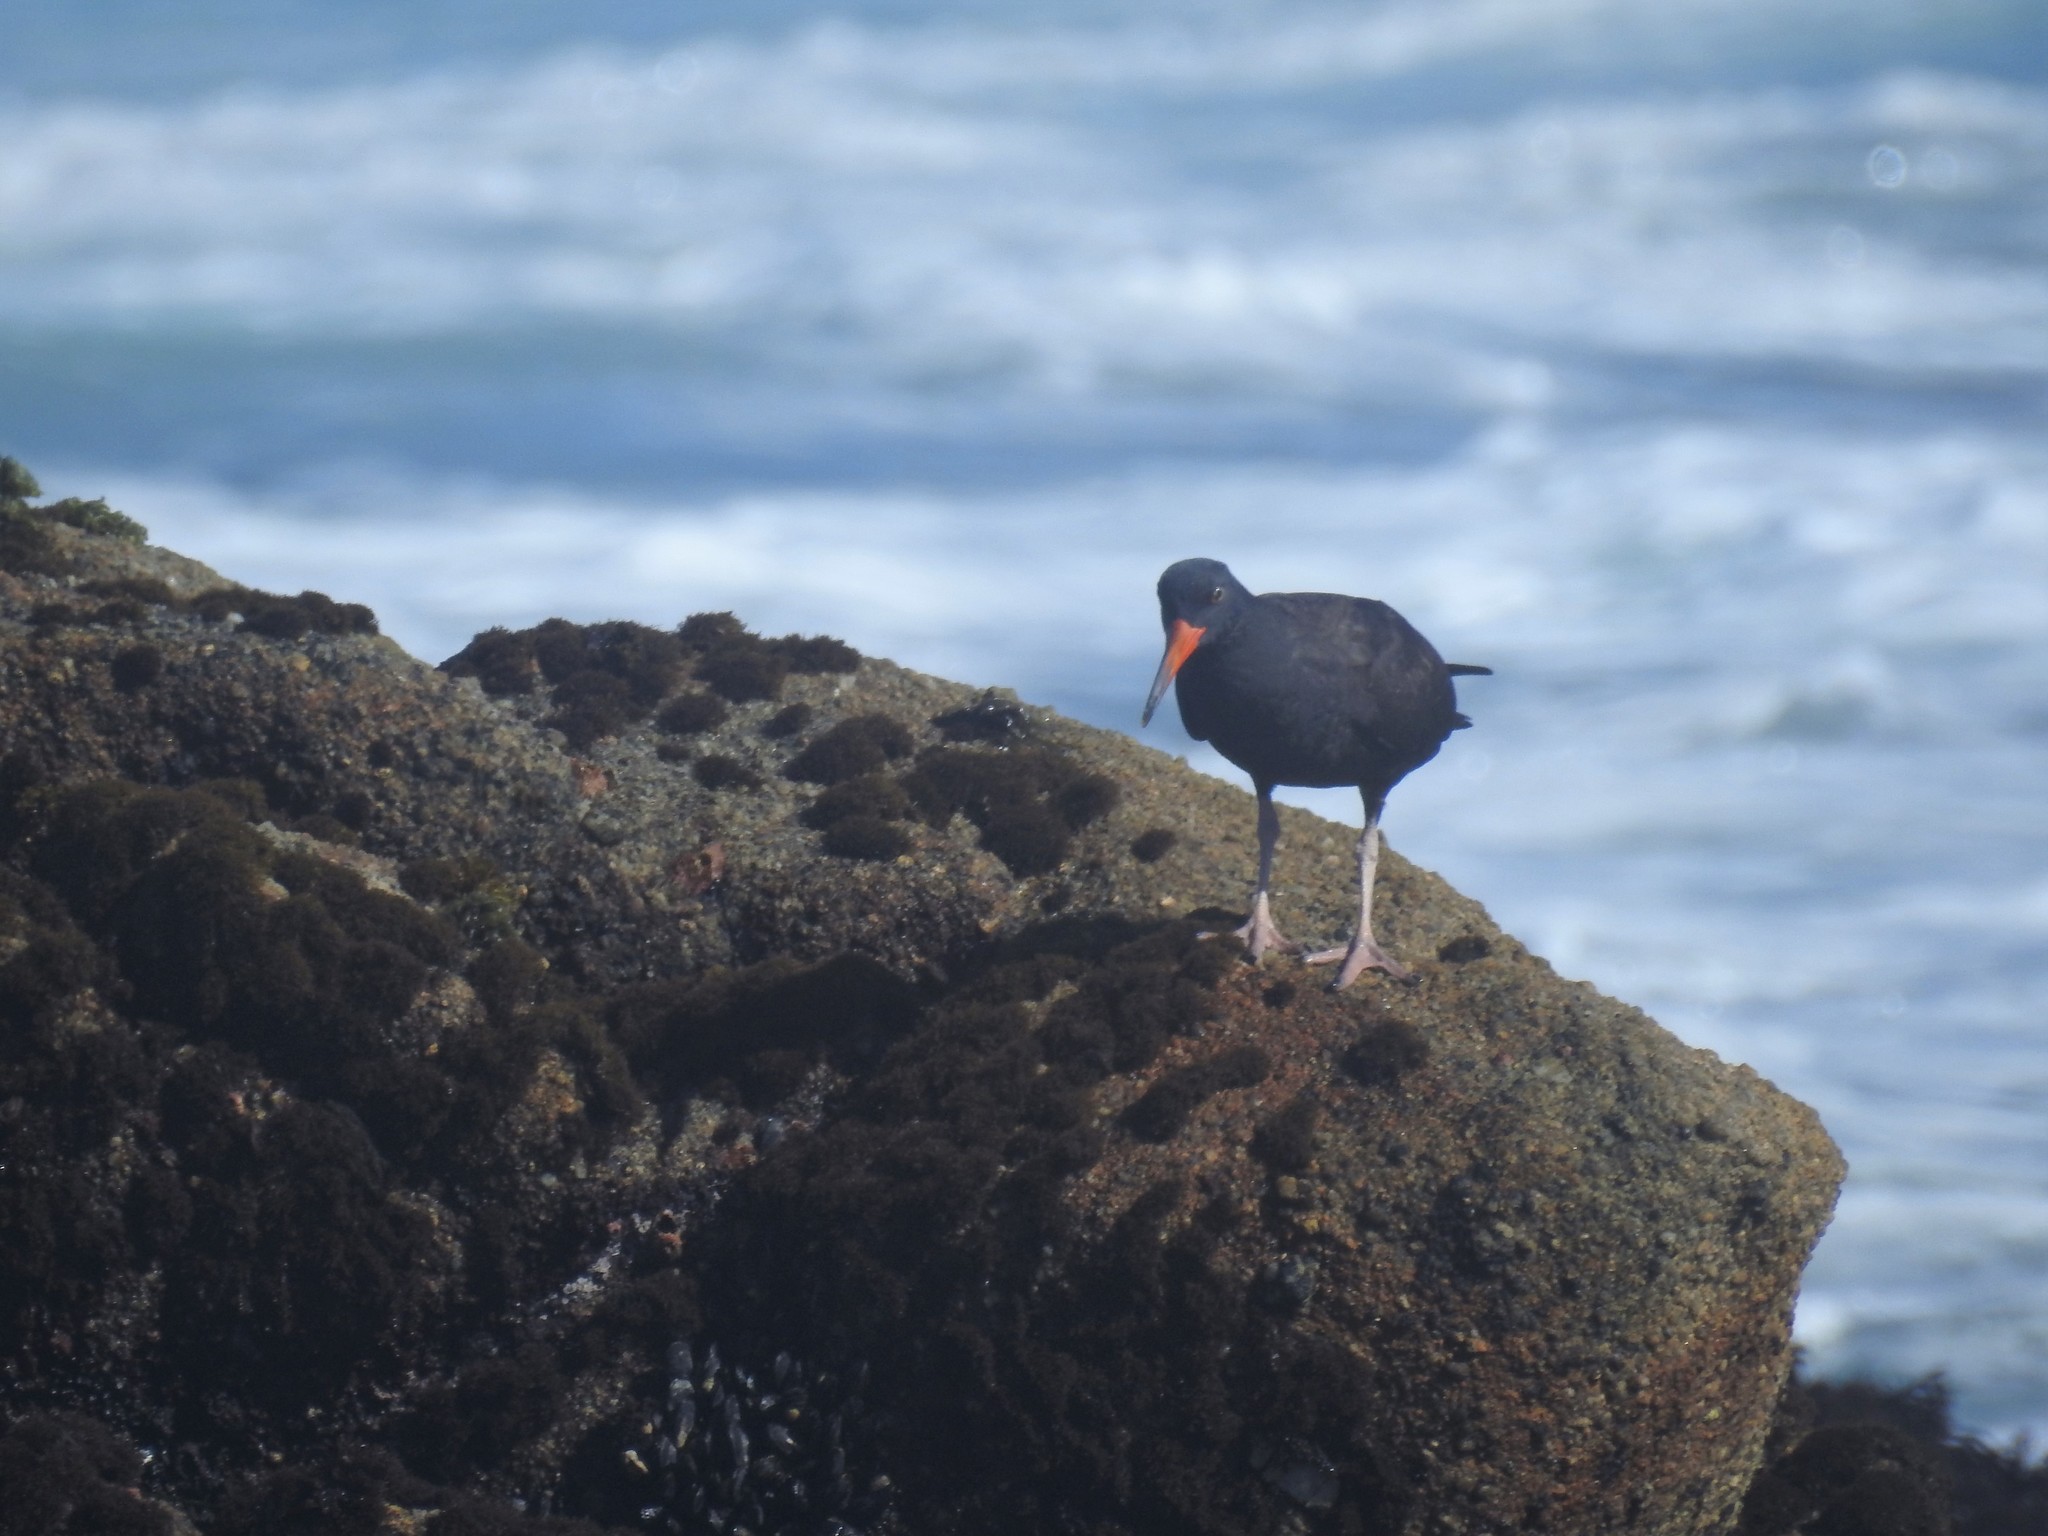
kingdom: Animalia
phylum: Chordata
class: Aves
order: Charadriiformes
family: Haematopodidae
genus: Haematopus
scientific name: Haematopus bachmani
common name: Black oystercatcher
